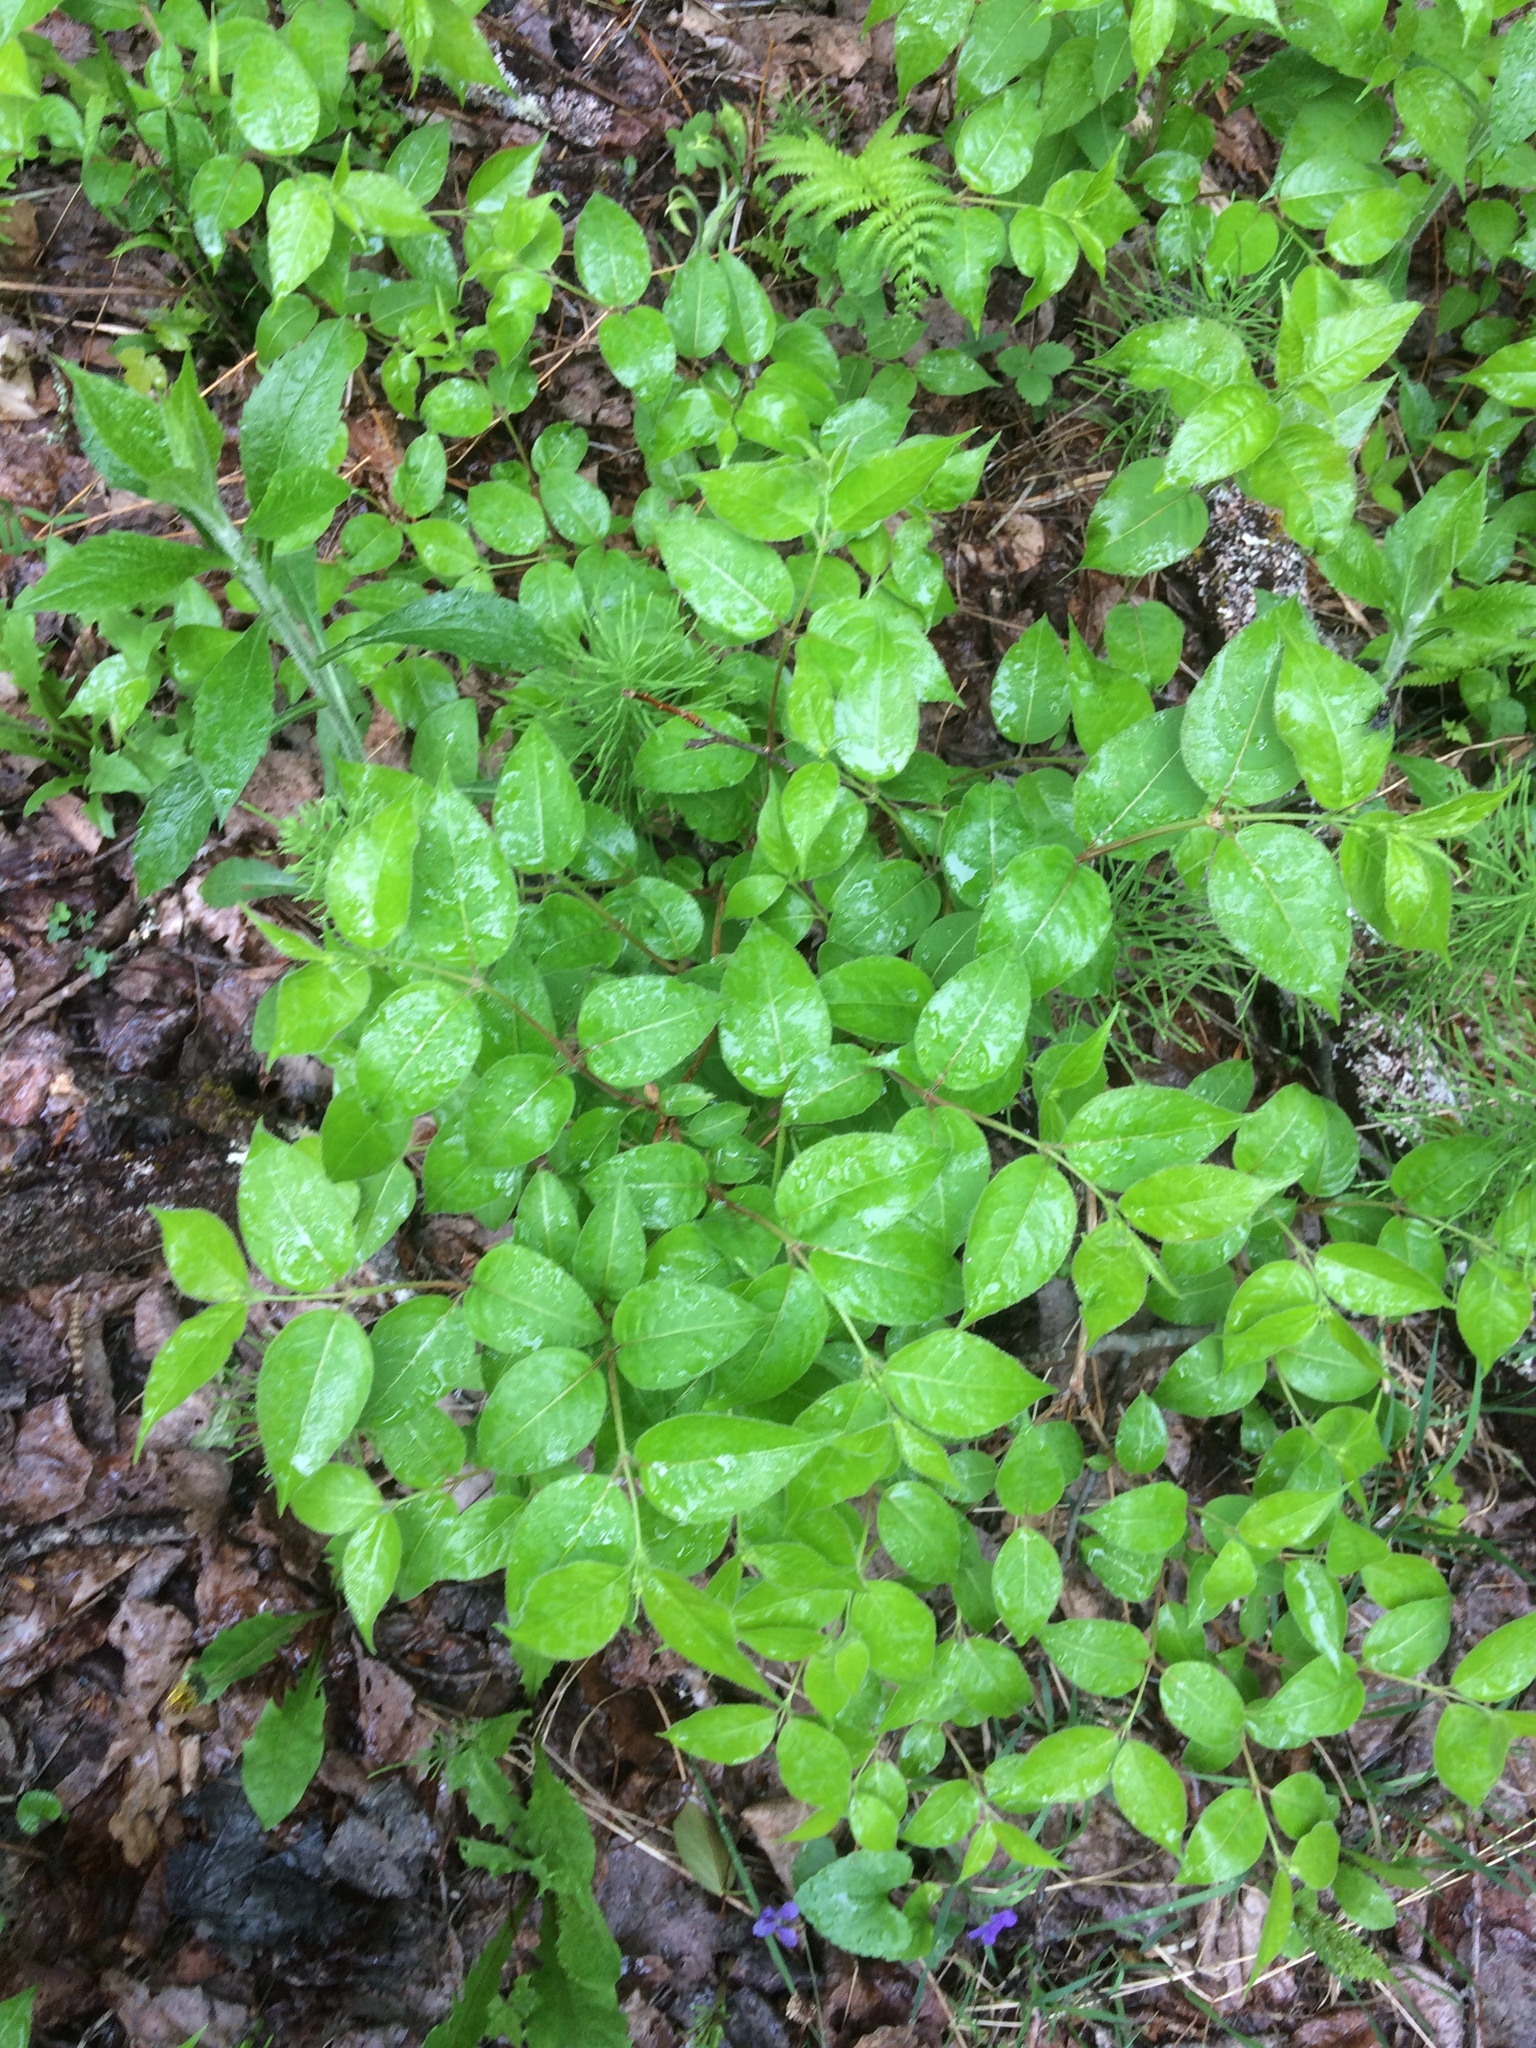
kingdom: Plantae
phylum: Tracheophyta
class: Magnoliopsida
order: Dipsacales
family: Caprifoliaceae
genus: Diervilla
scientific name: Diervilla lonicera
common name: Bush-honeysuckle
